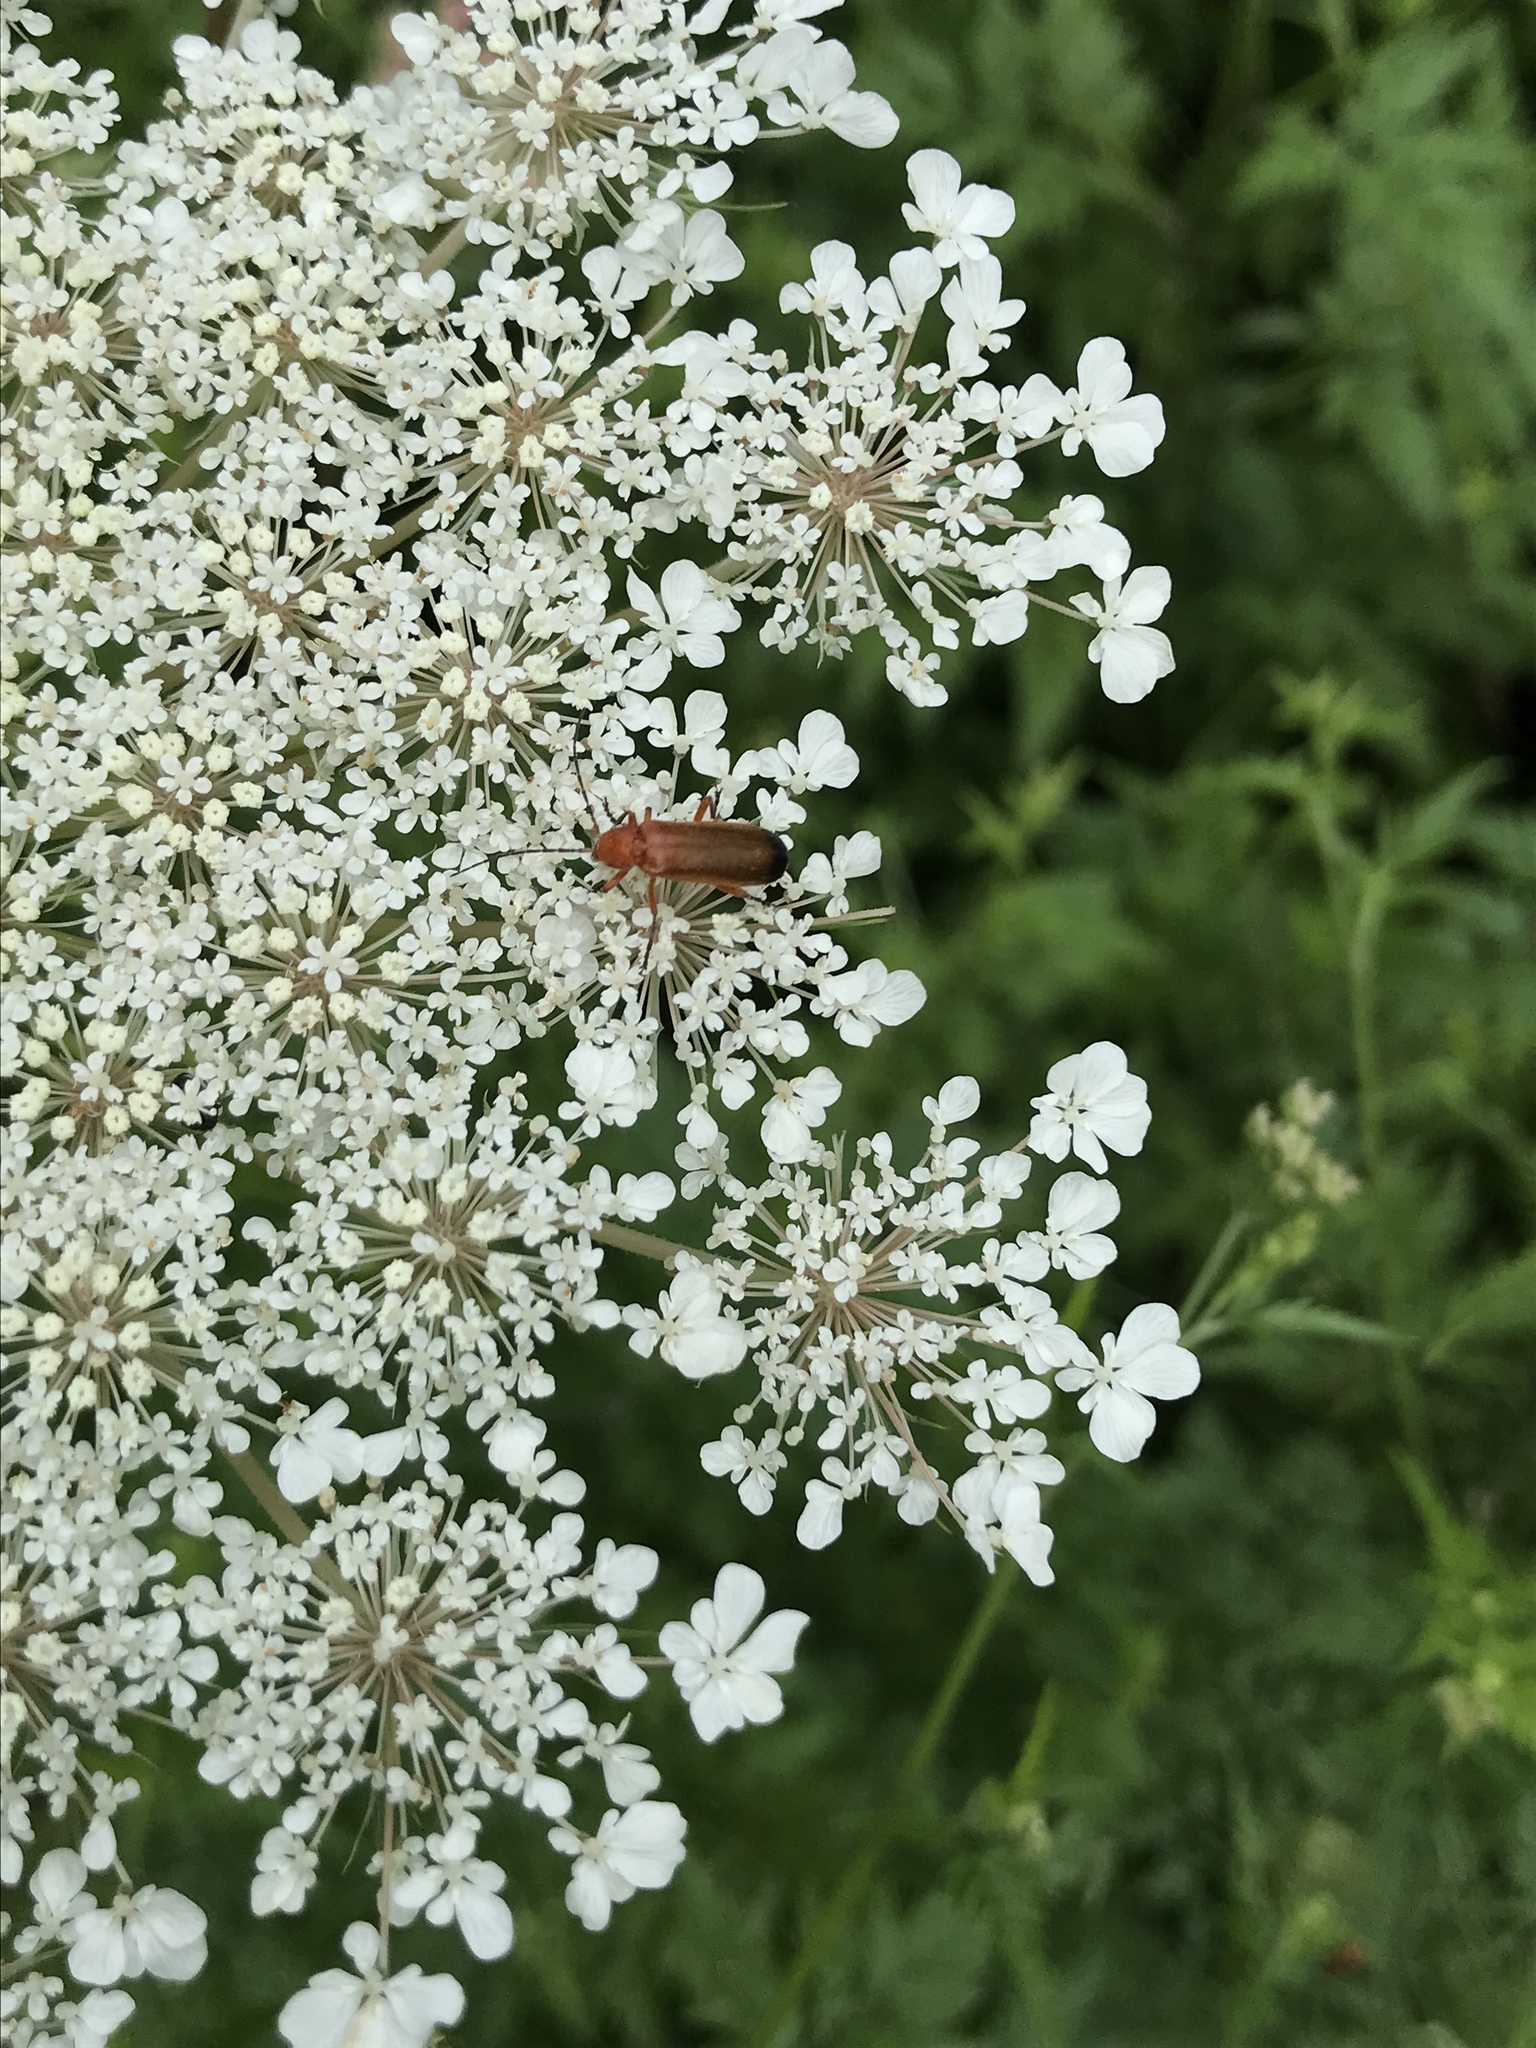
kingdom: Animalia
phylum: Arthropoda
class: Insecta
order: Coleoptera
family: Cantharidae
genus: Rhagonycha
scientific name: Rhagonycha fulva
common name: Common red soldier beetle
